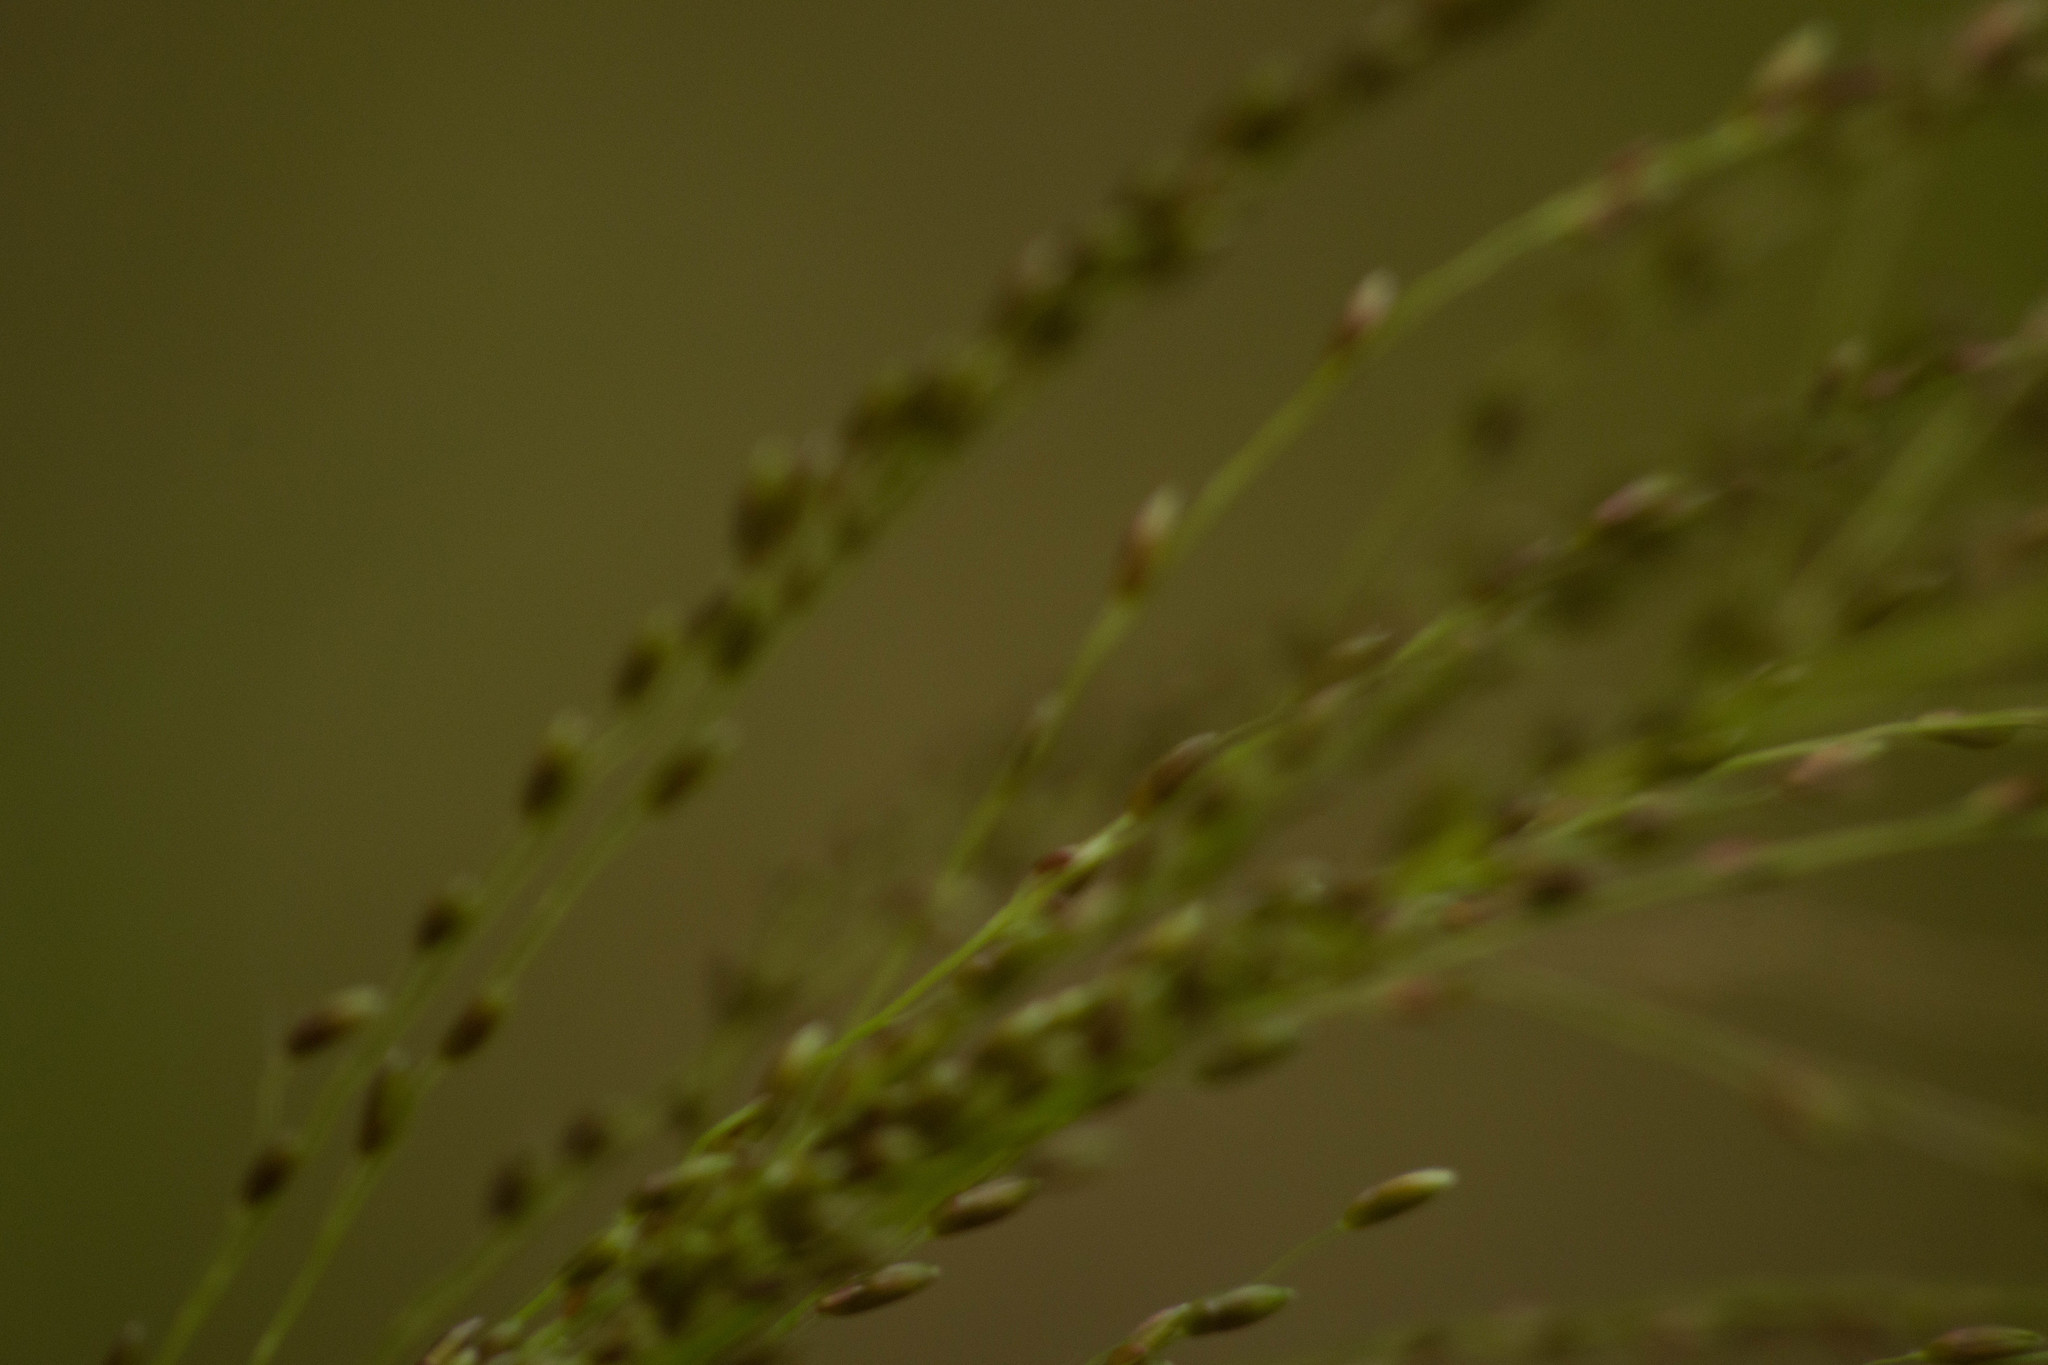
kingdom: Plantae
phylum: Tracheophyta
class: Liliopsida
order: Poales
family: Poaceae
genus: Megathyrsus
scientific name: Megathyrsus maximus
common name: Guineagrass
